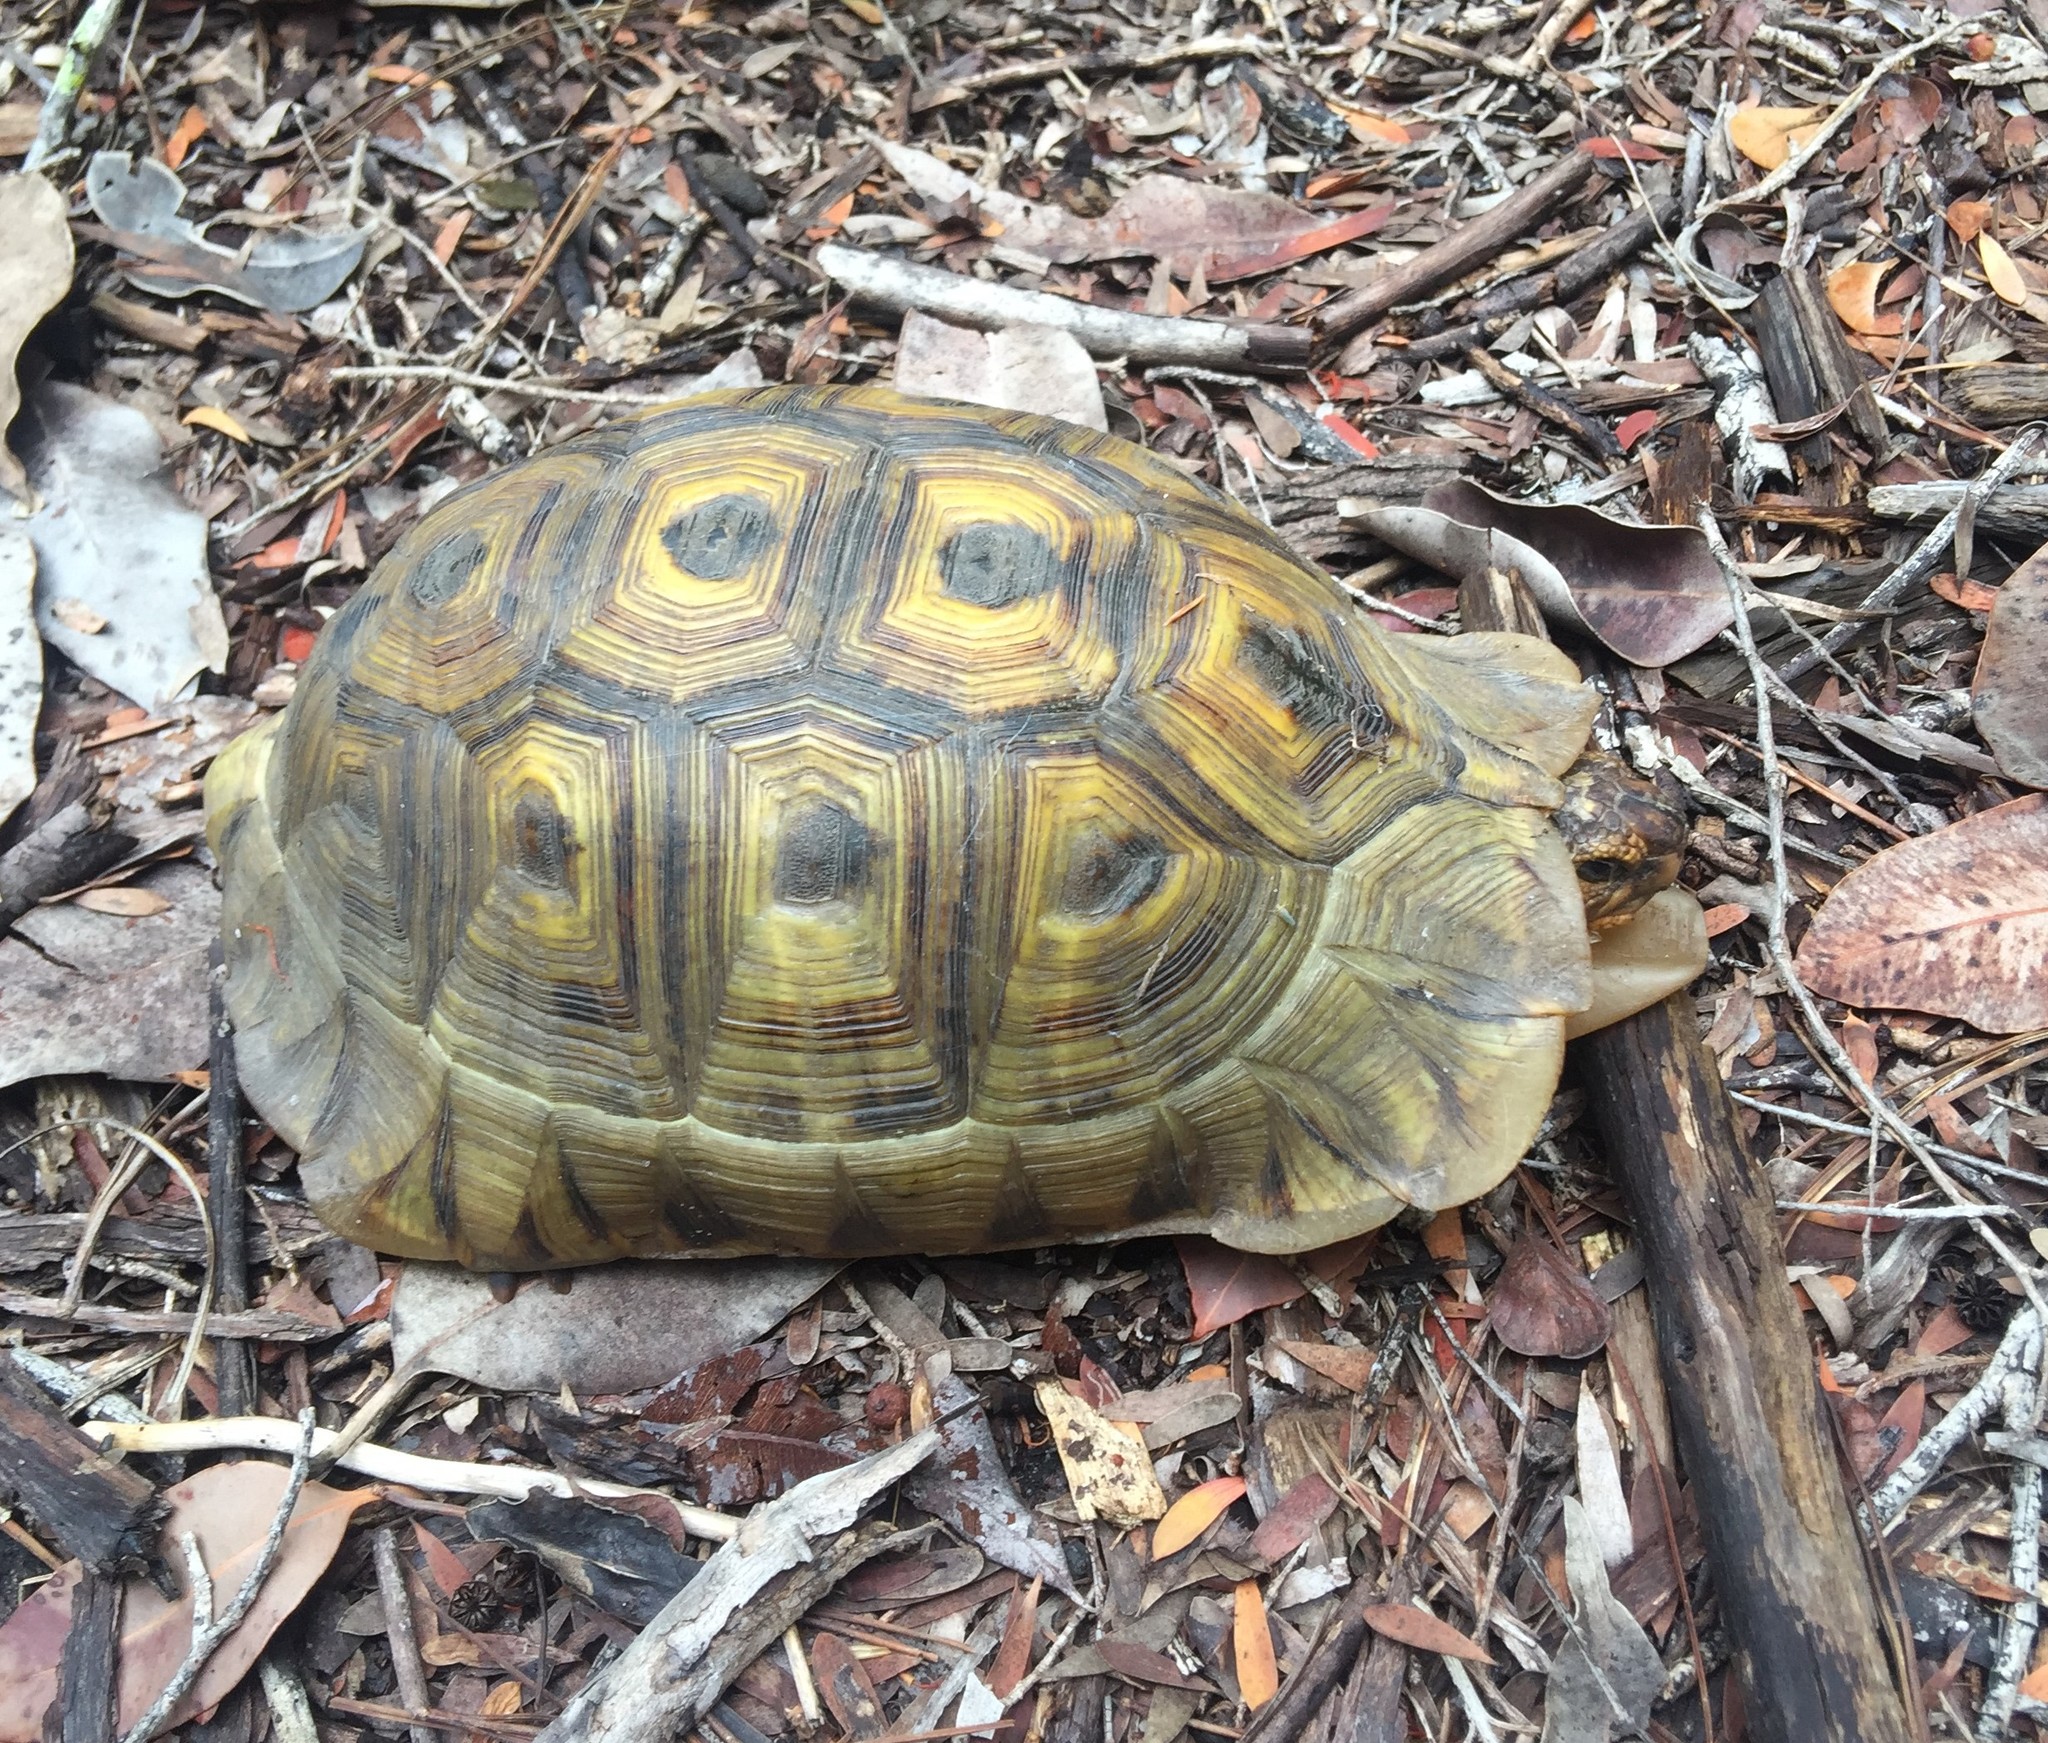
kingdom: Animalia
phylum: Chordata
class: Testudines
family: Testudinidae
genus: Chersina
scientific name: Chersina angulata
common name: South african bowsprit tortoise
